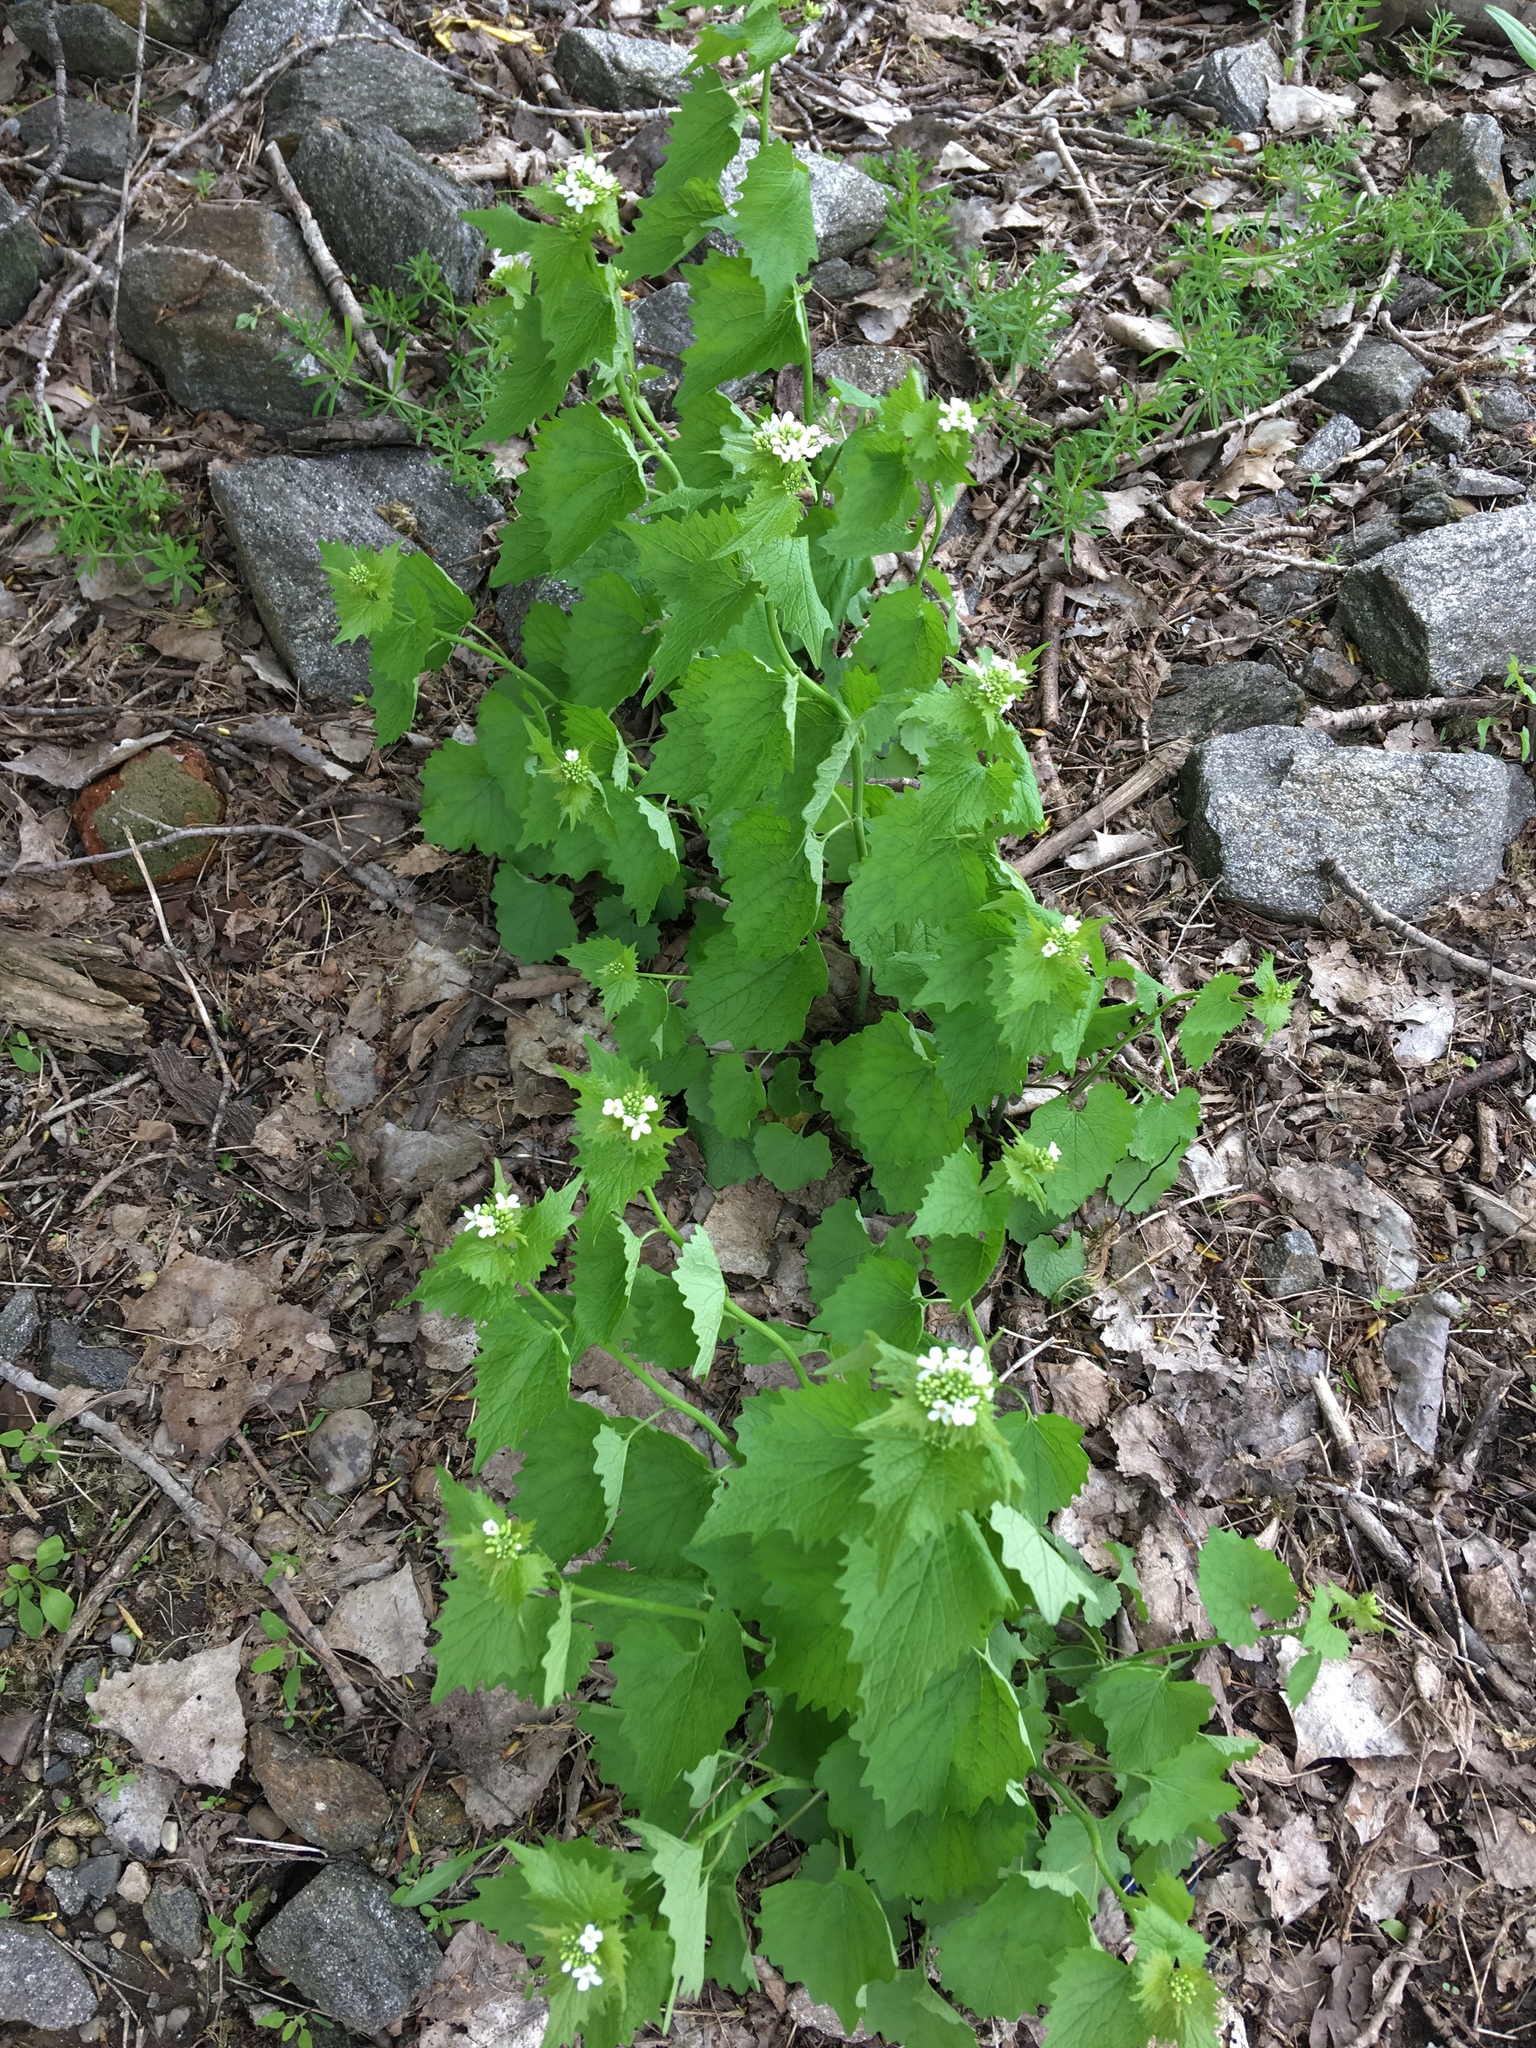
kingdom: Plantae
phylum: Tracheophyta
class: Magnoliopsida
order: Brassicales
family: Brassicaceae
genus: Alliaria
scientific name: Alliaria petiolata
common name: Garlic mustard
